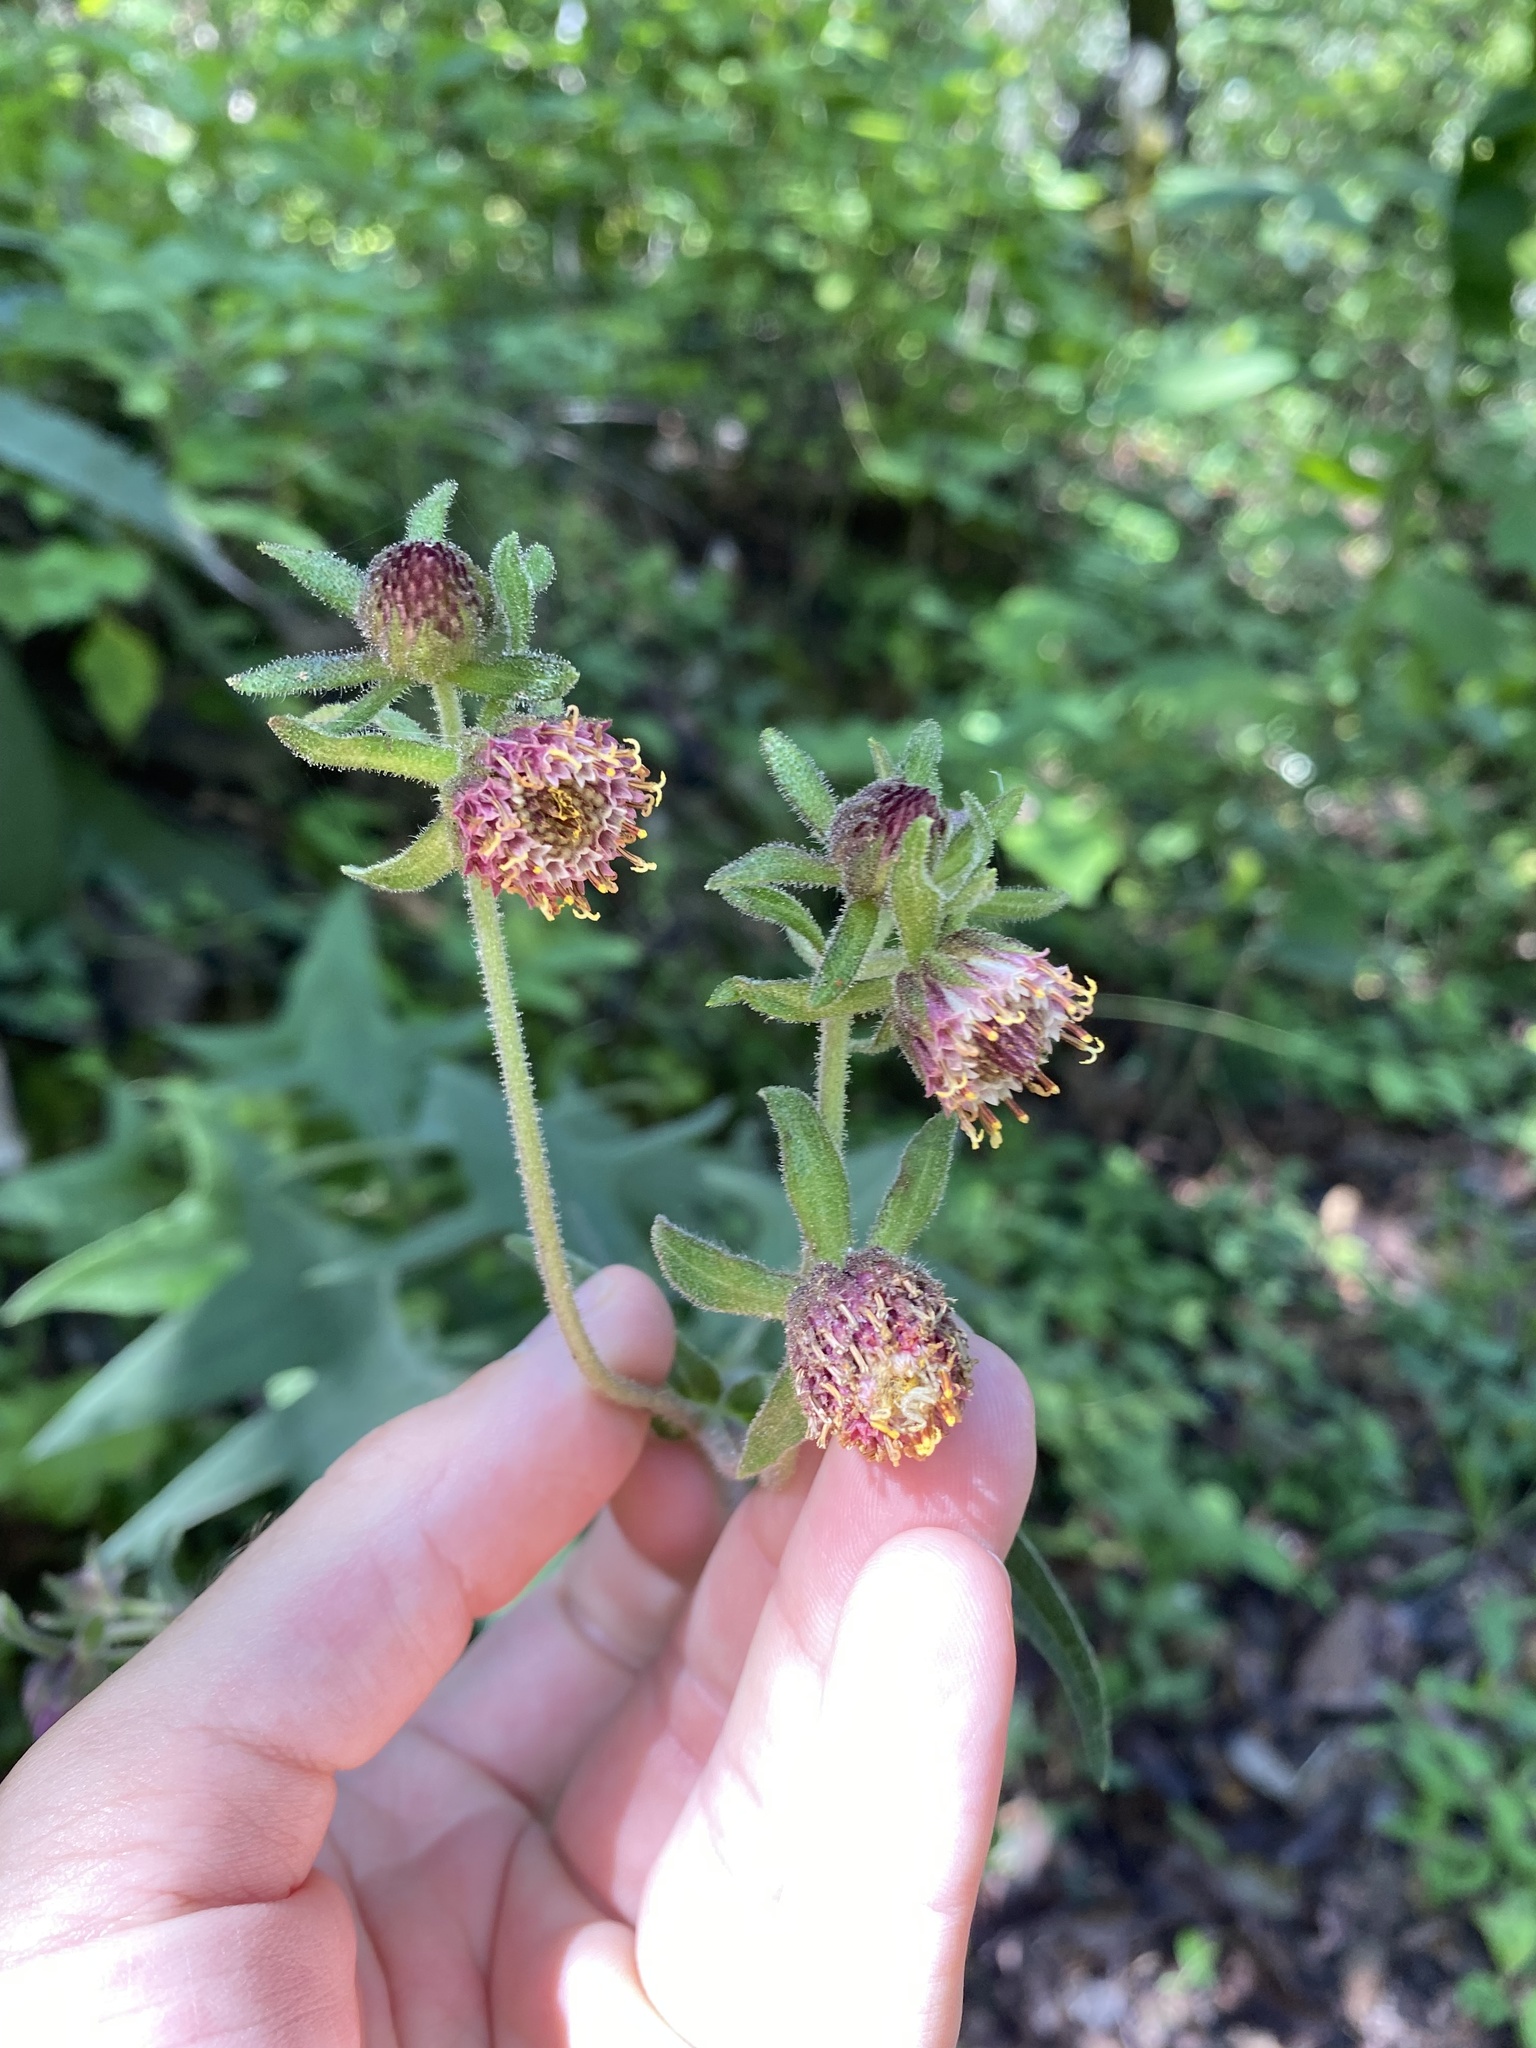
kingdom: Plantae
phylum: Tracheophyta
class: Magnoliopsida
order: Asterales
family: Asteraceae
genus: Axiniphyllum
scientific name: Axiniphyllum scabrum
